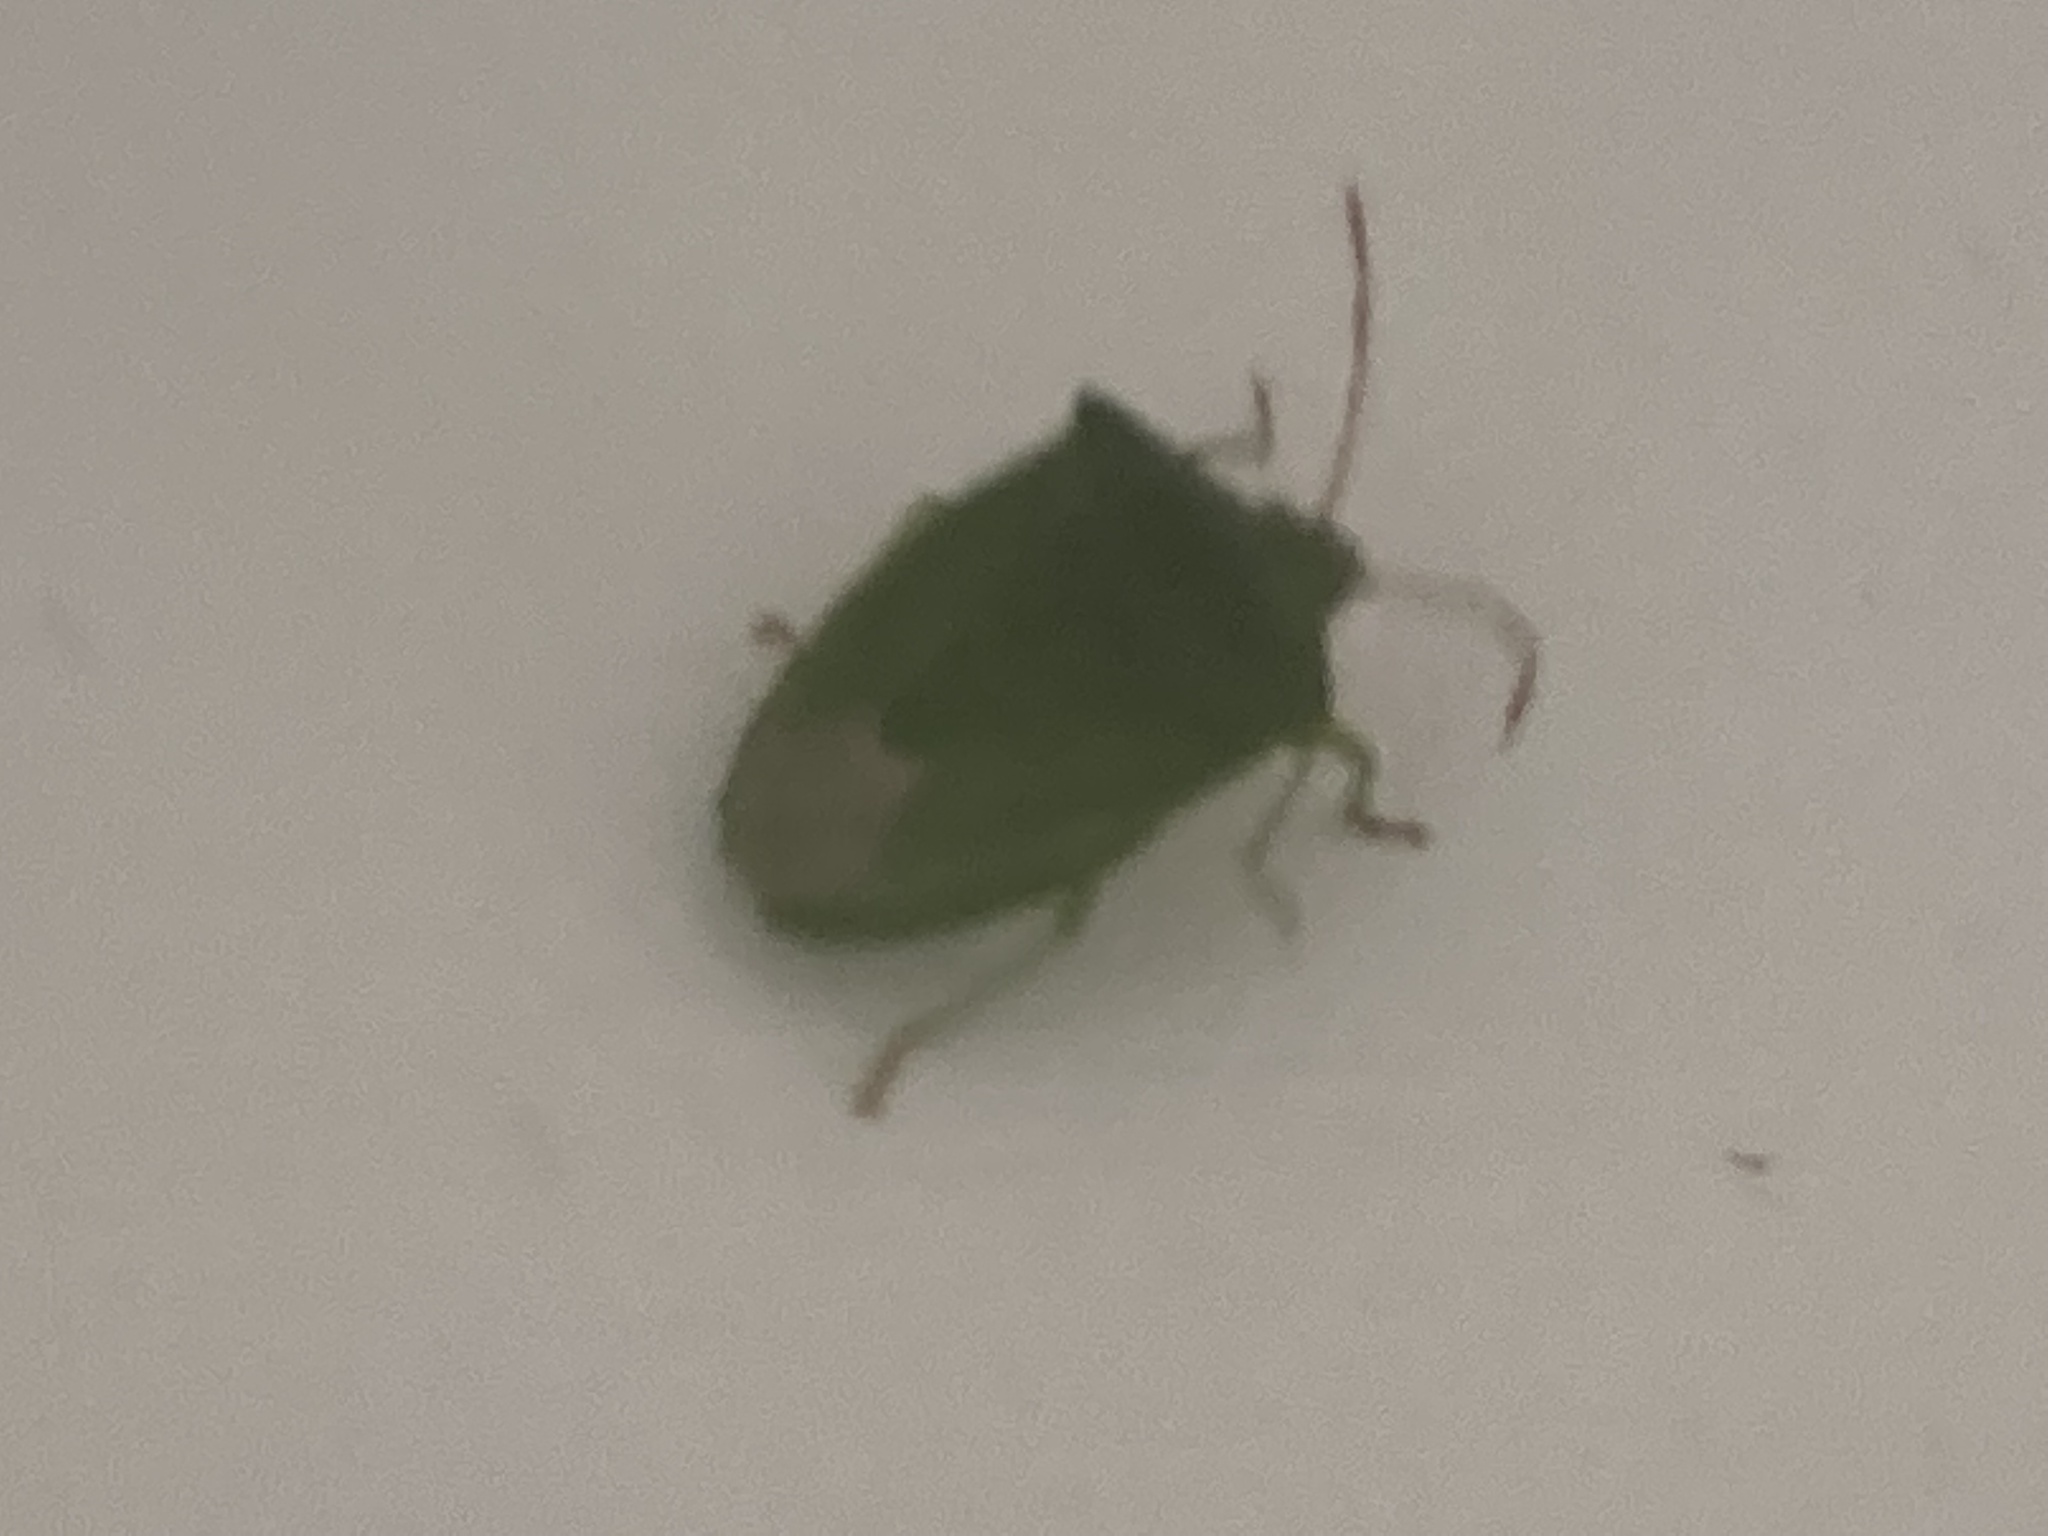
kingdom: Animalia
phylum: Arthropoda
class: Insecta
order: Hemiptera
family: Pentatomidae
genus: Cuspicona
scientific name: Cuspicona simplex
